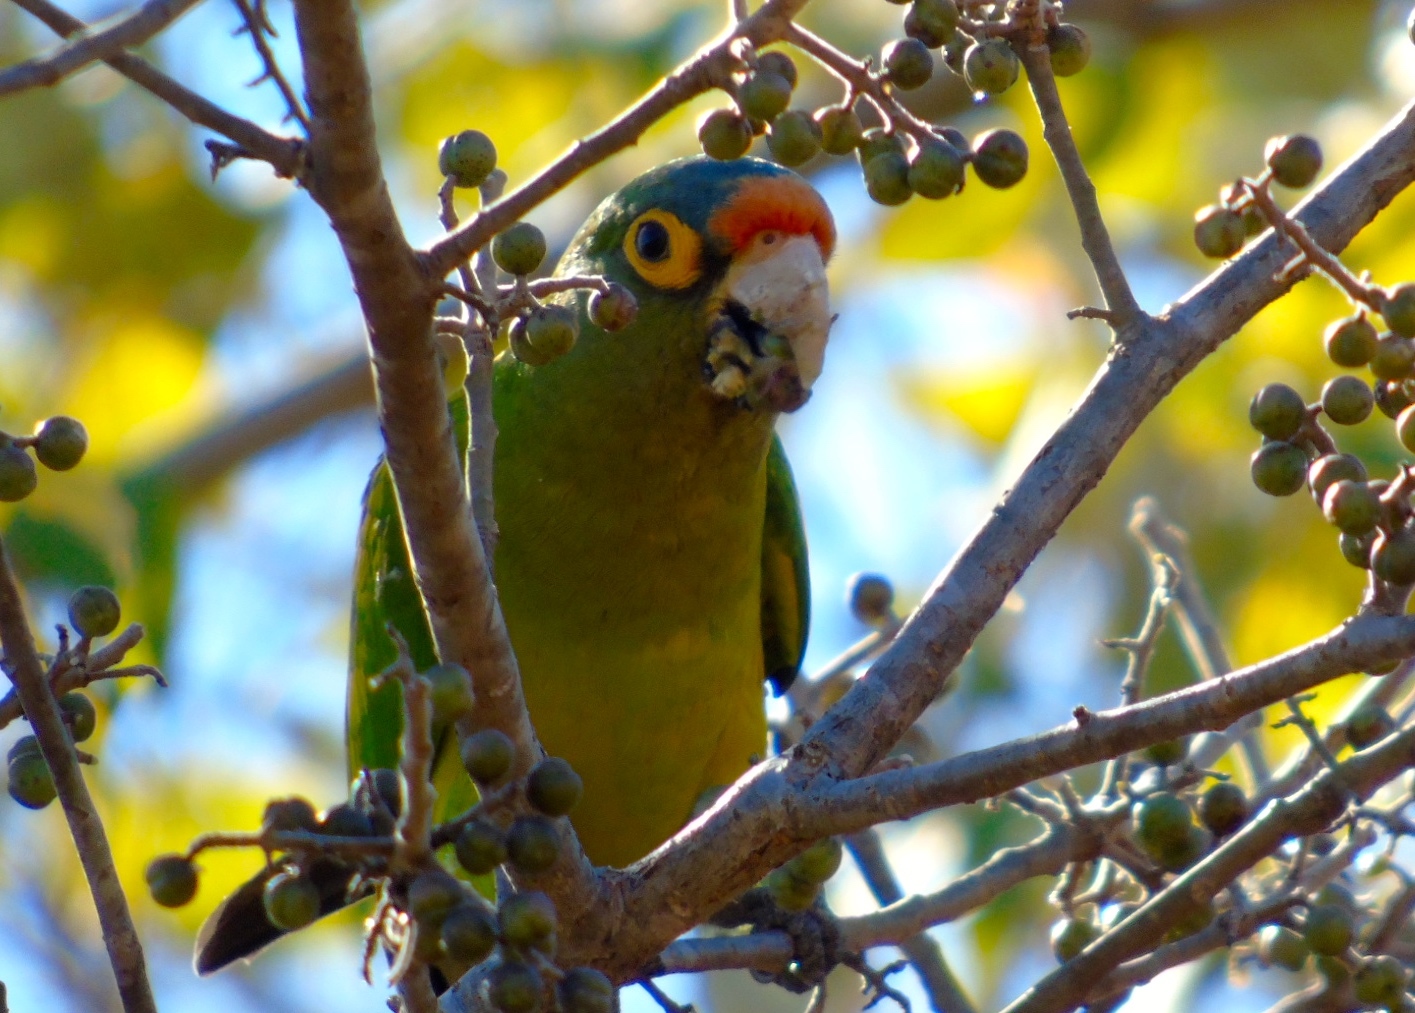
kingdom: Animalia
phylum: Chordata
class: Aves
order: Psittaciformes
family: Psittacidae
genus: Aratinga
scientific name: Aratinga canicularis
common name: Orange-fronted parakeet
